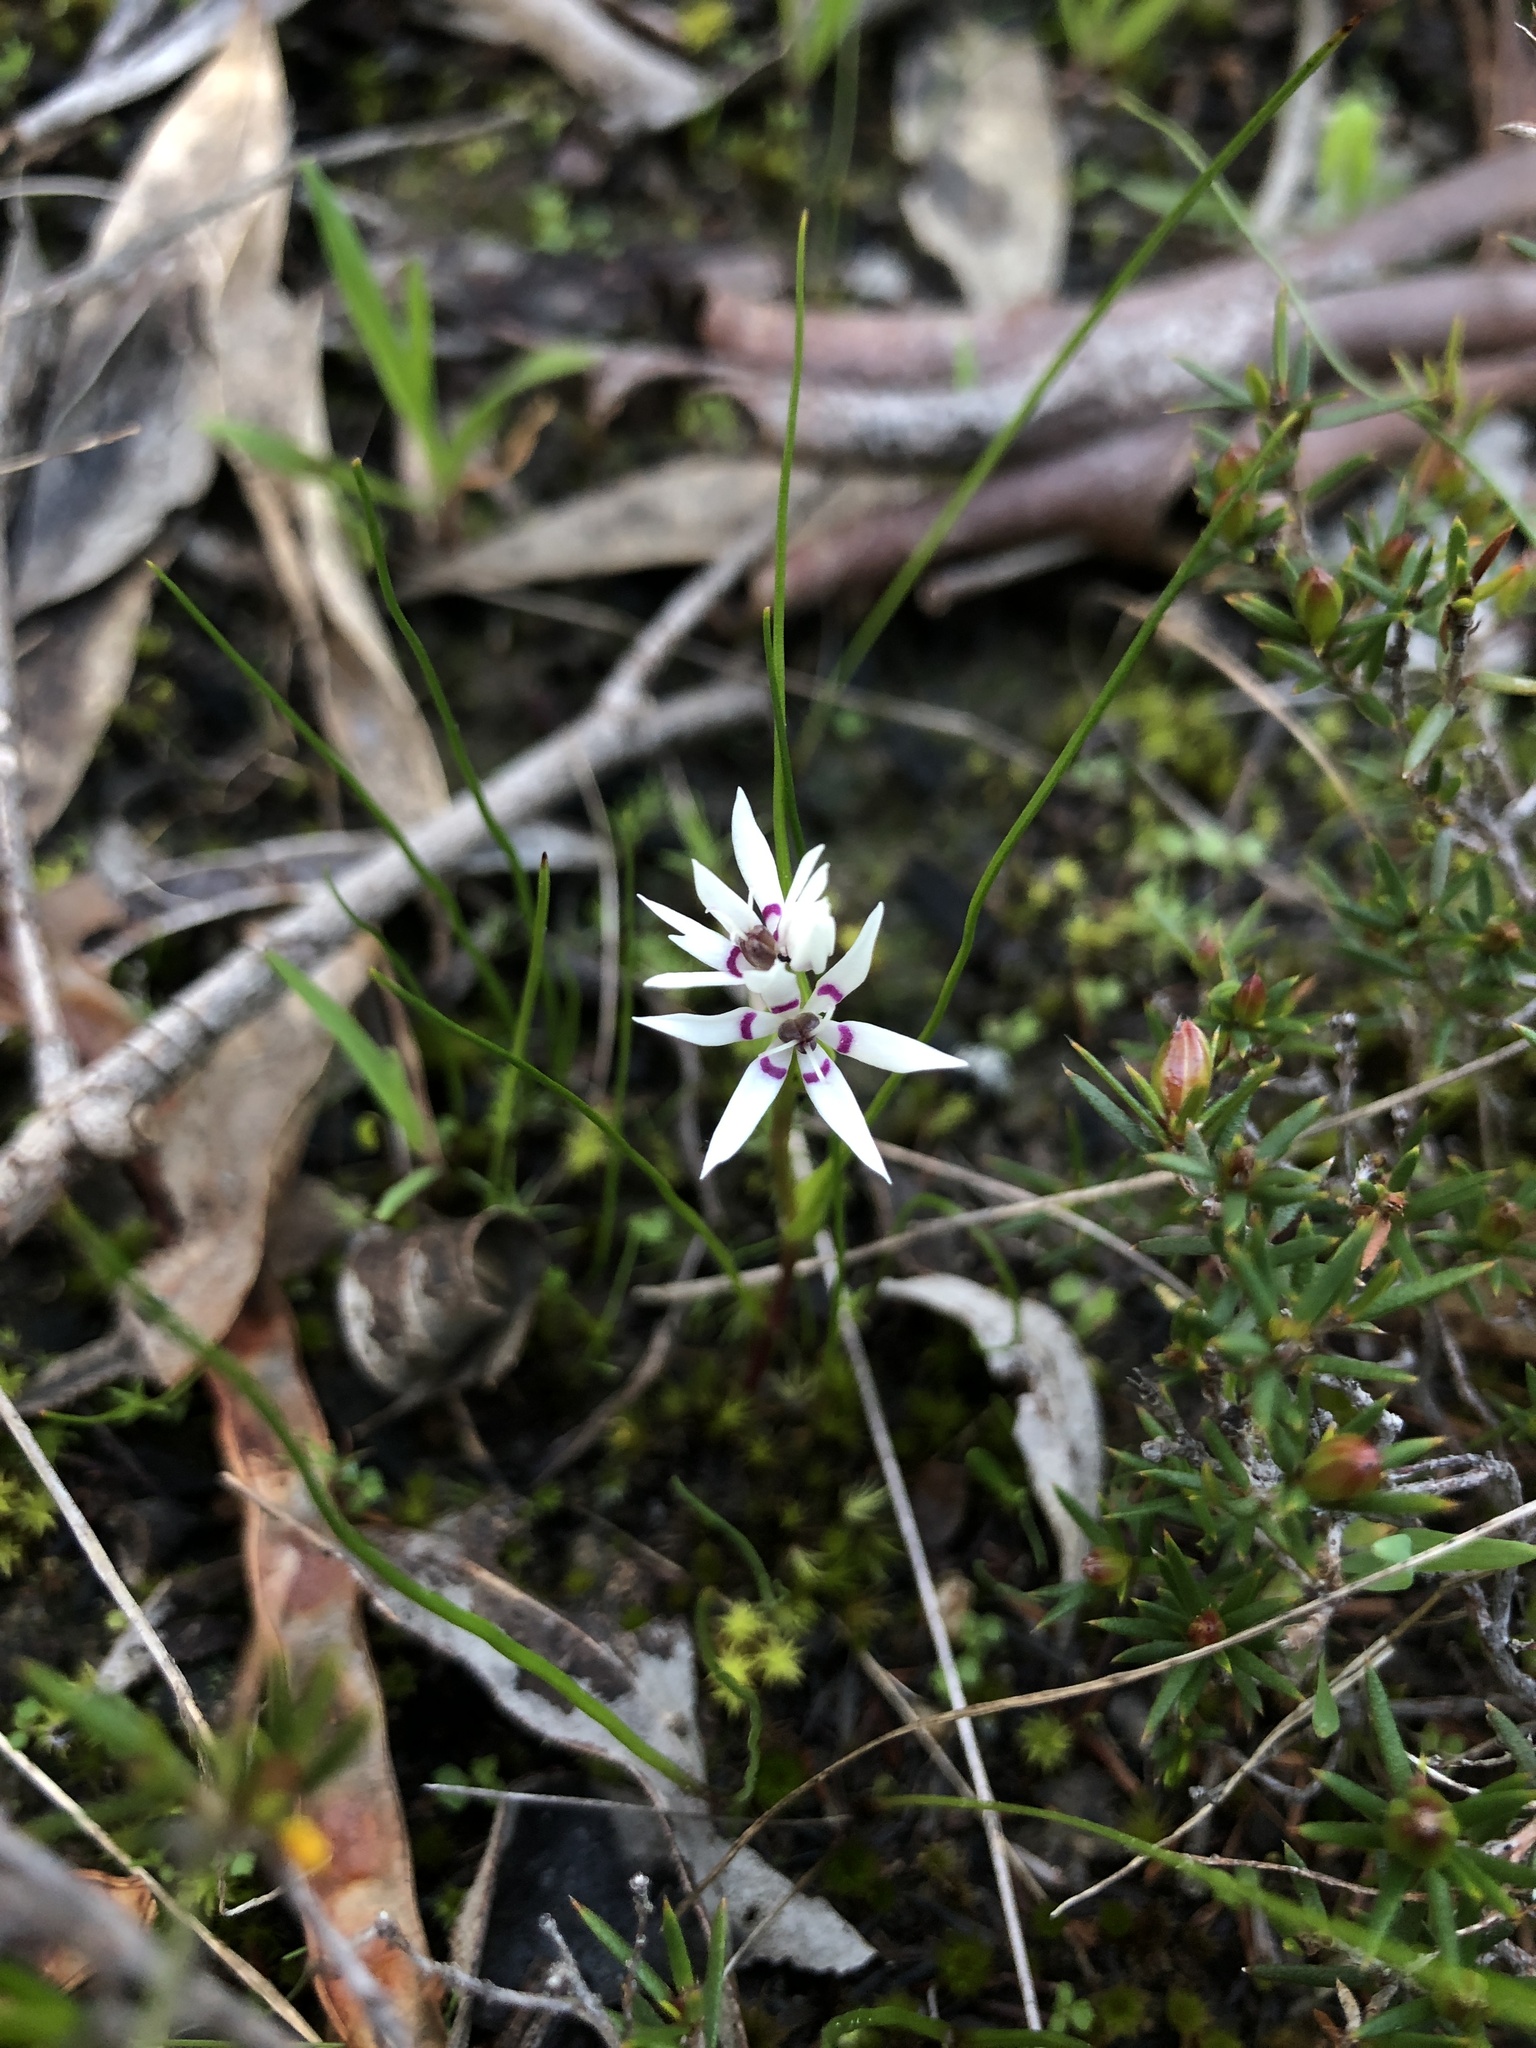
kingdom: Plantae
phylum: Tracheophyta
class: Liliopsida
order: Liliales
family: Colchicaceae
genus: Wurmbea
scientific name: Wurmbea dioica
